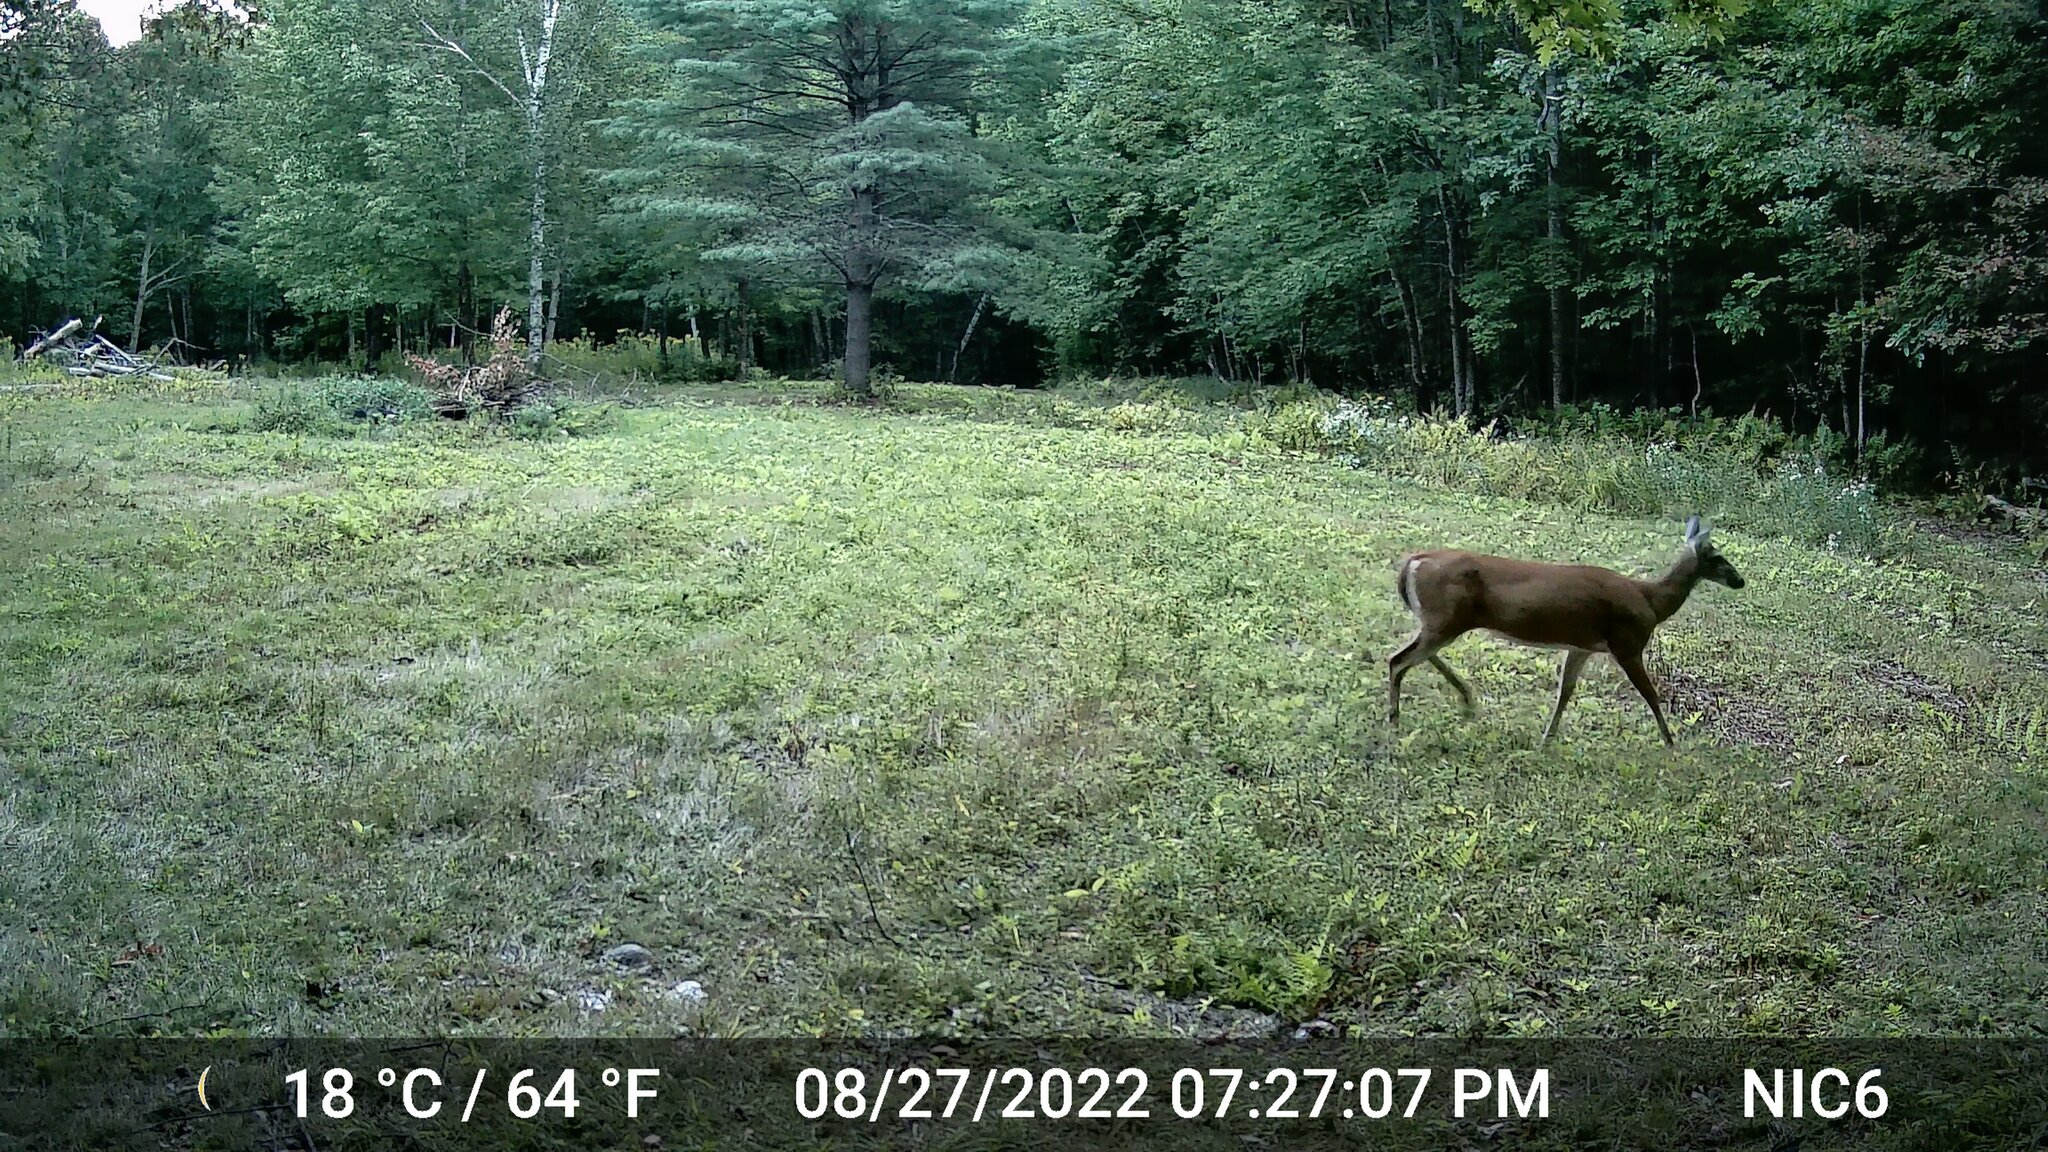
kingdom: Animalia
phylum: Chordata
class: Mammalia
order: Artiodactyla
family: Cervidae
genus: Odocoileus
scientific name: Odocoileus virginianus
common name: White-tailed deer
